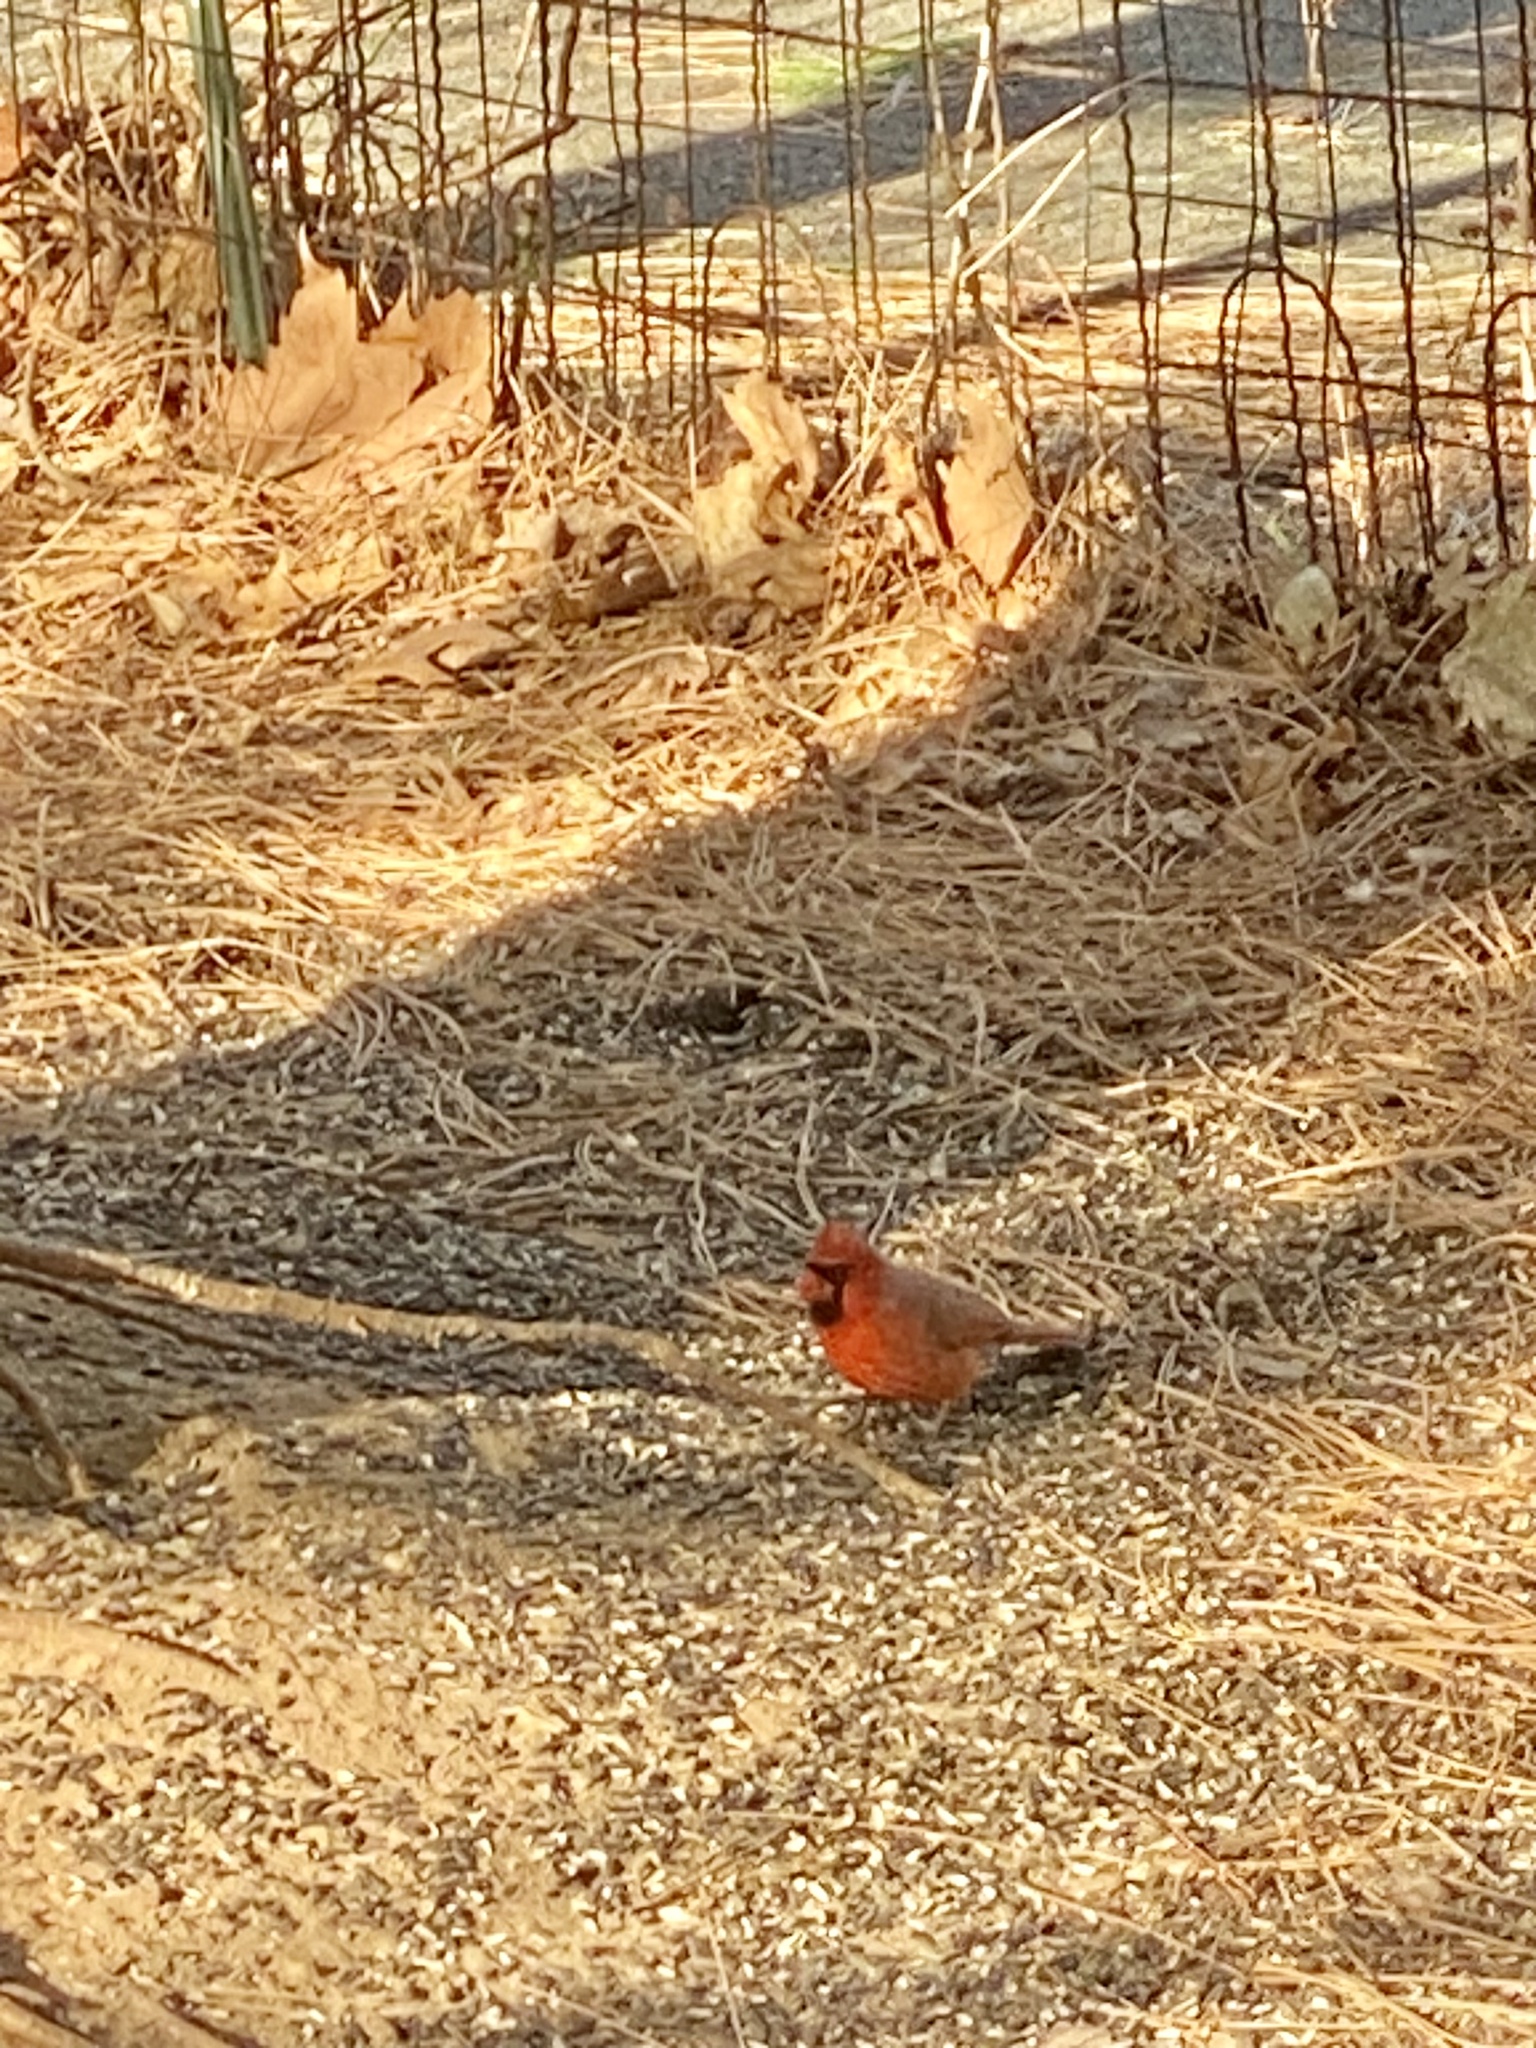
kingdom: Animalia
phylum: Chordata
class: Aves
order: Passeriformes
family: Cardinalidae
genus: Cardinalis
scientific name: Cardinalis cardinalis
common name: Northern cardinal
